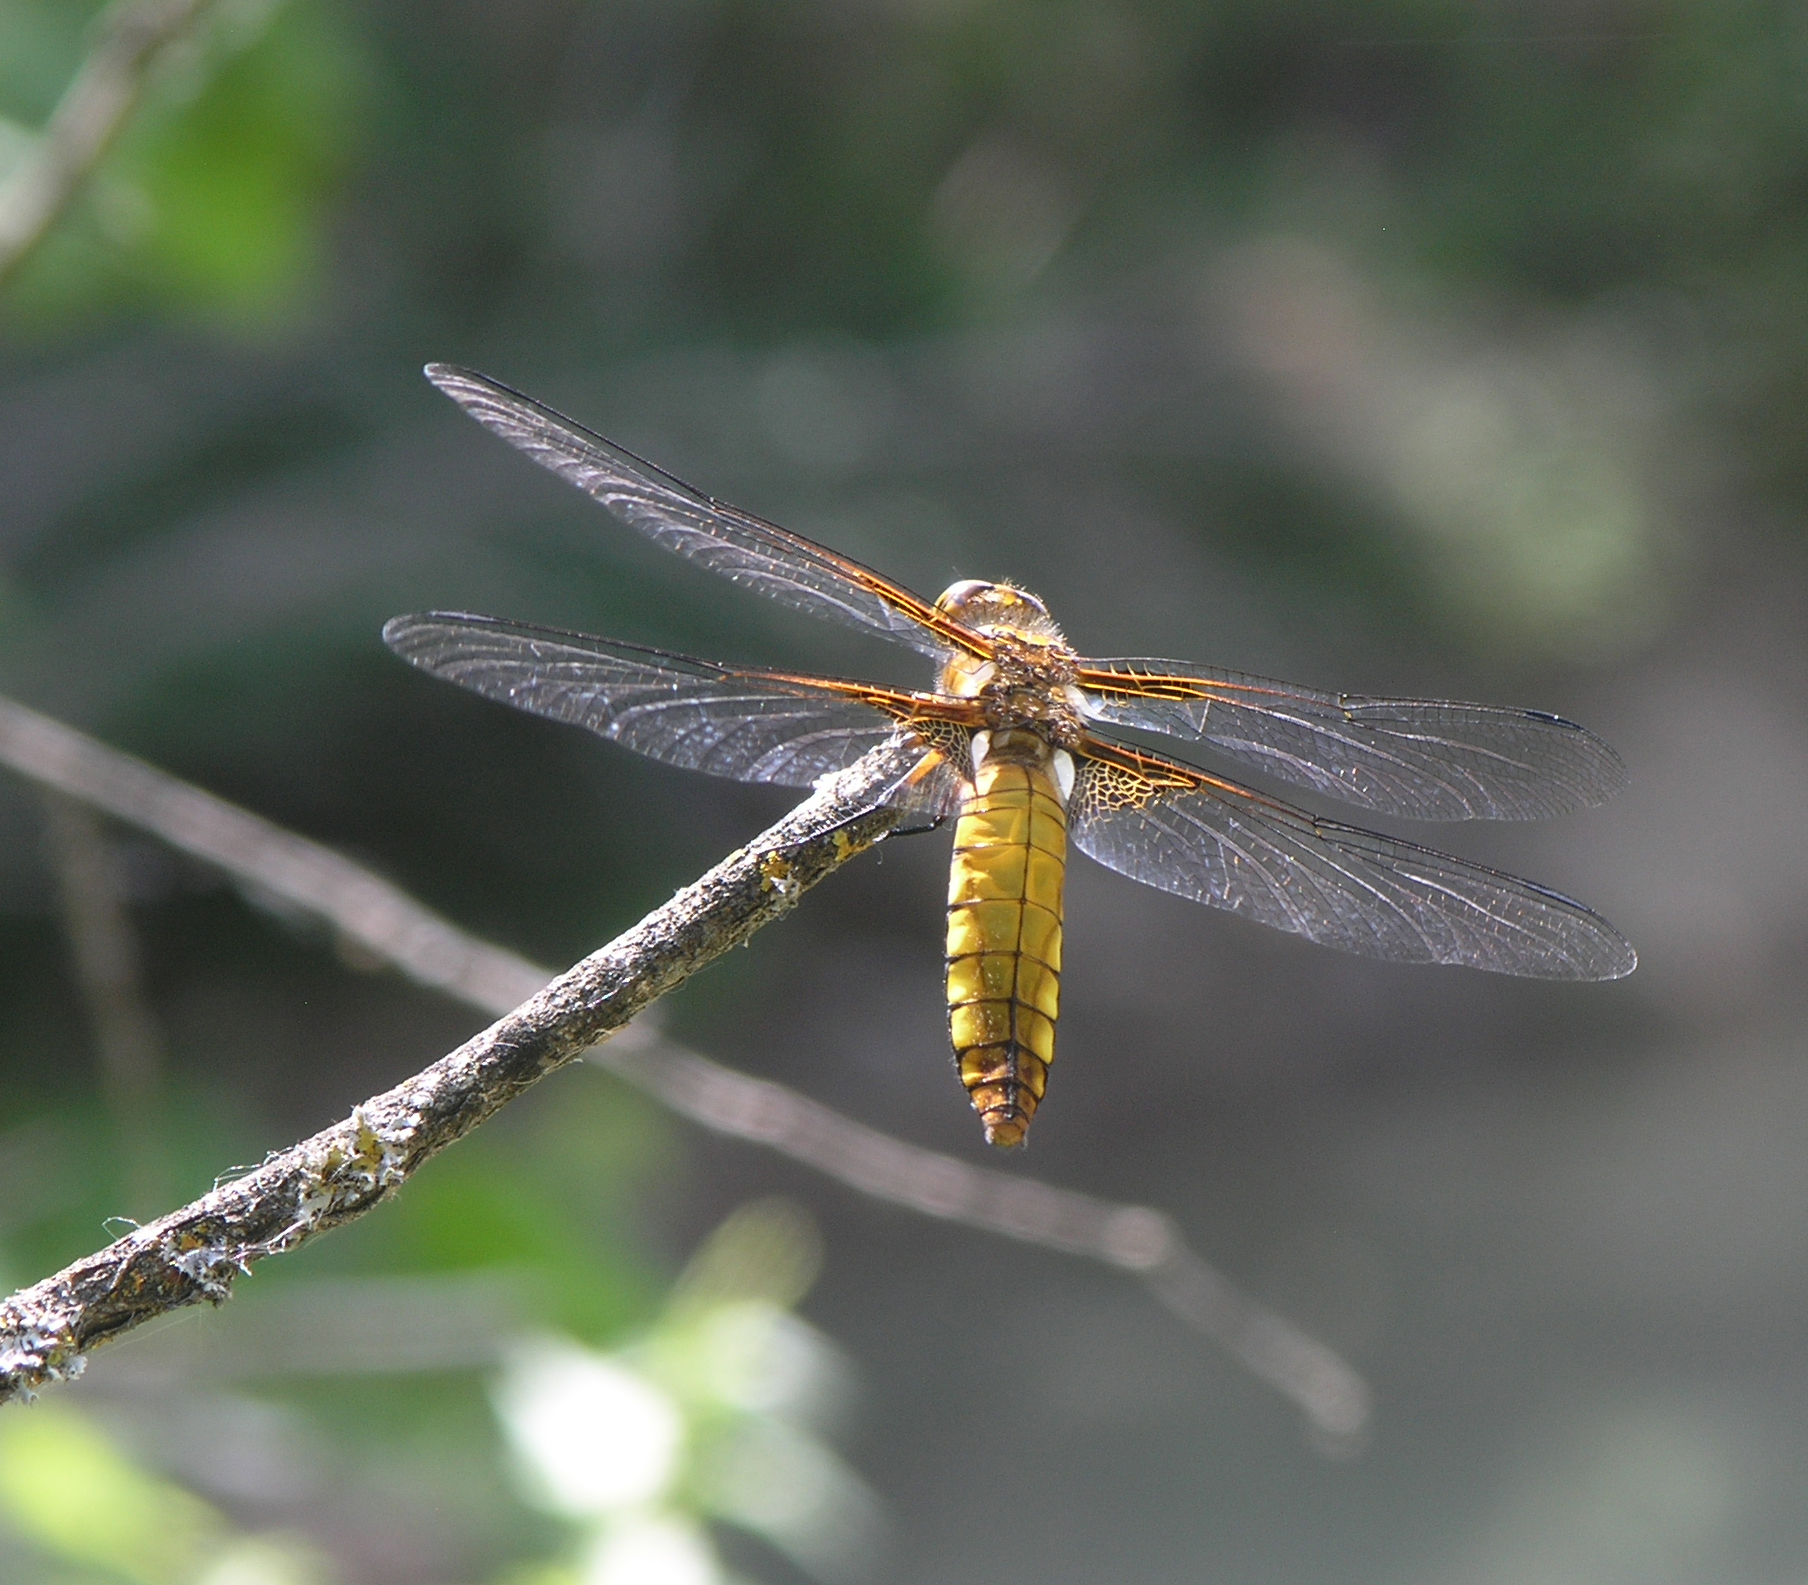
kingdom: Animalia
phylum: Arthropoda
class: Insecta
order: Odonata
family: Libellulidae
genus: Libellula
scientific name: Libellula depressa
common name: Broad-bodied chaser
